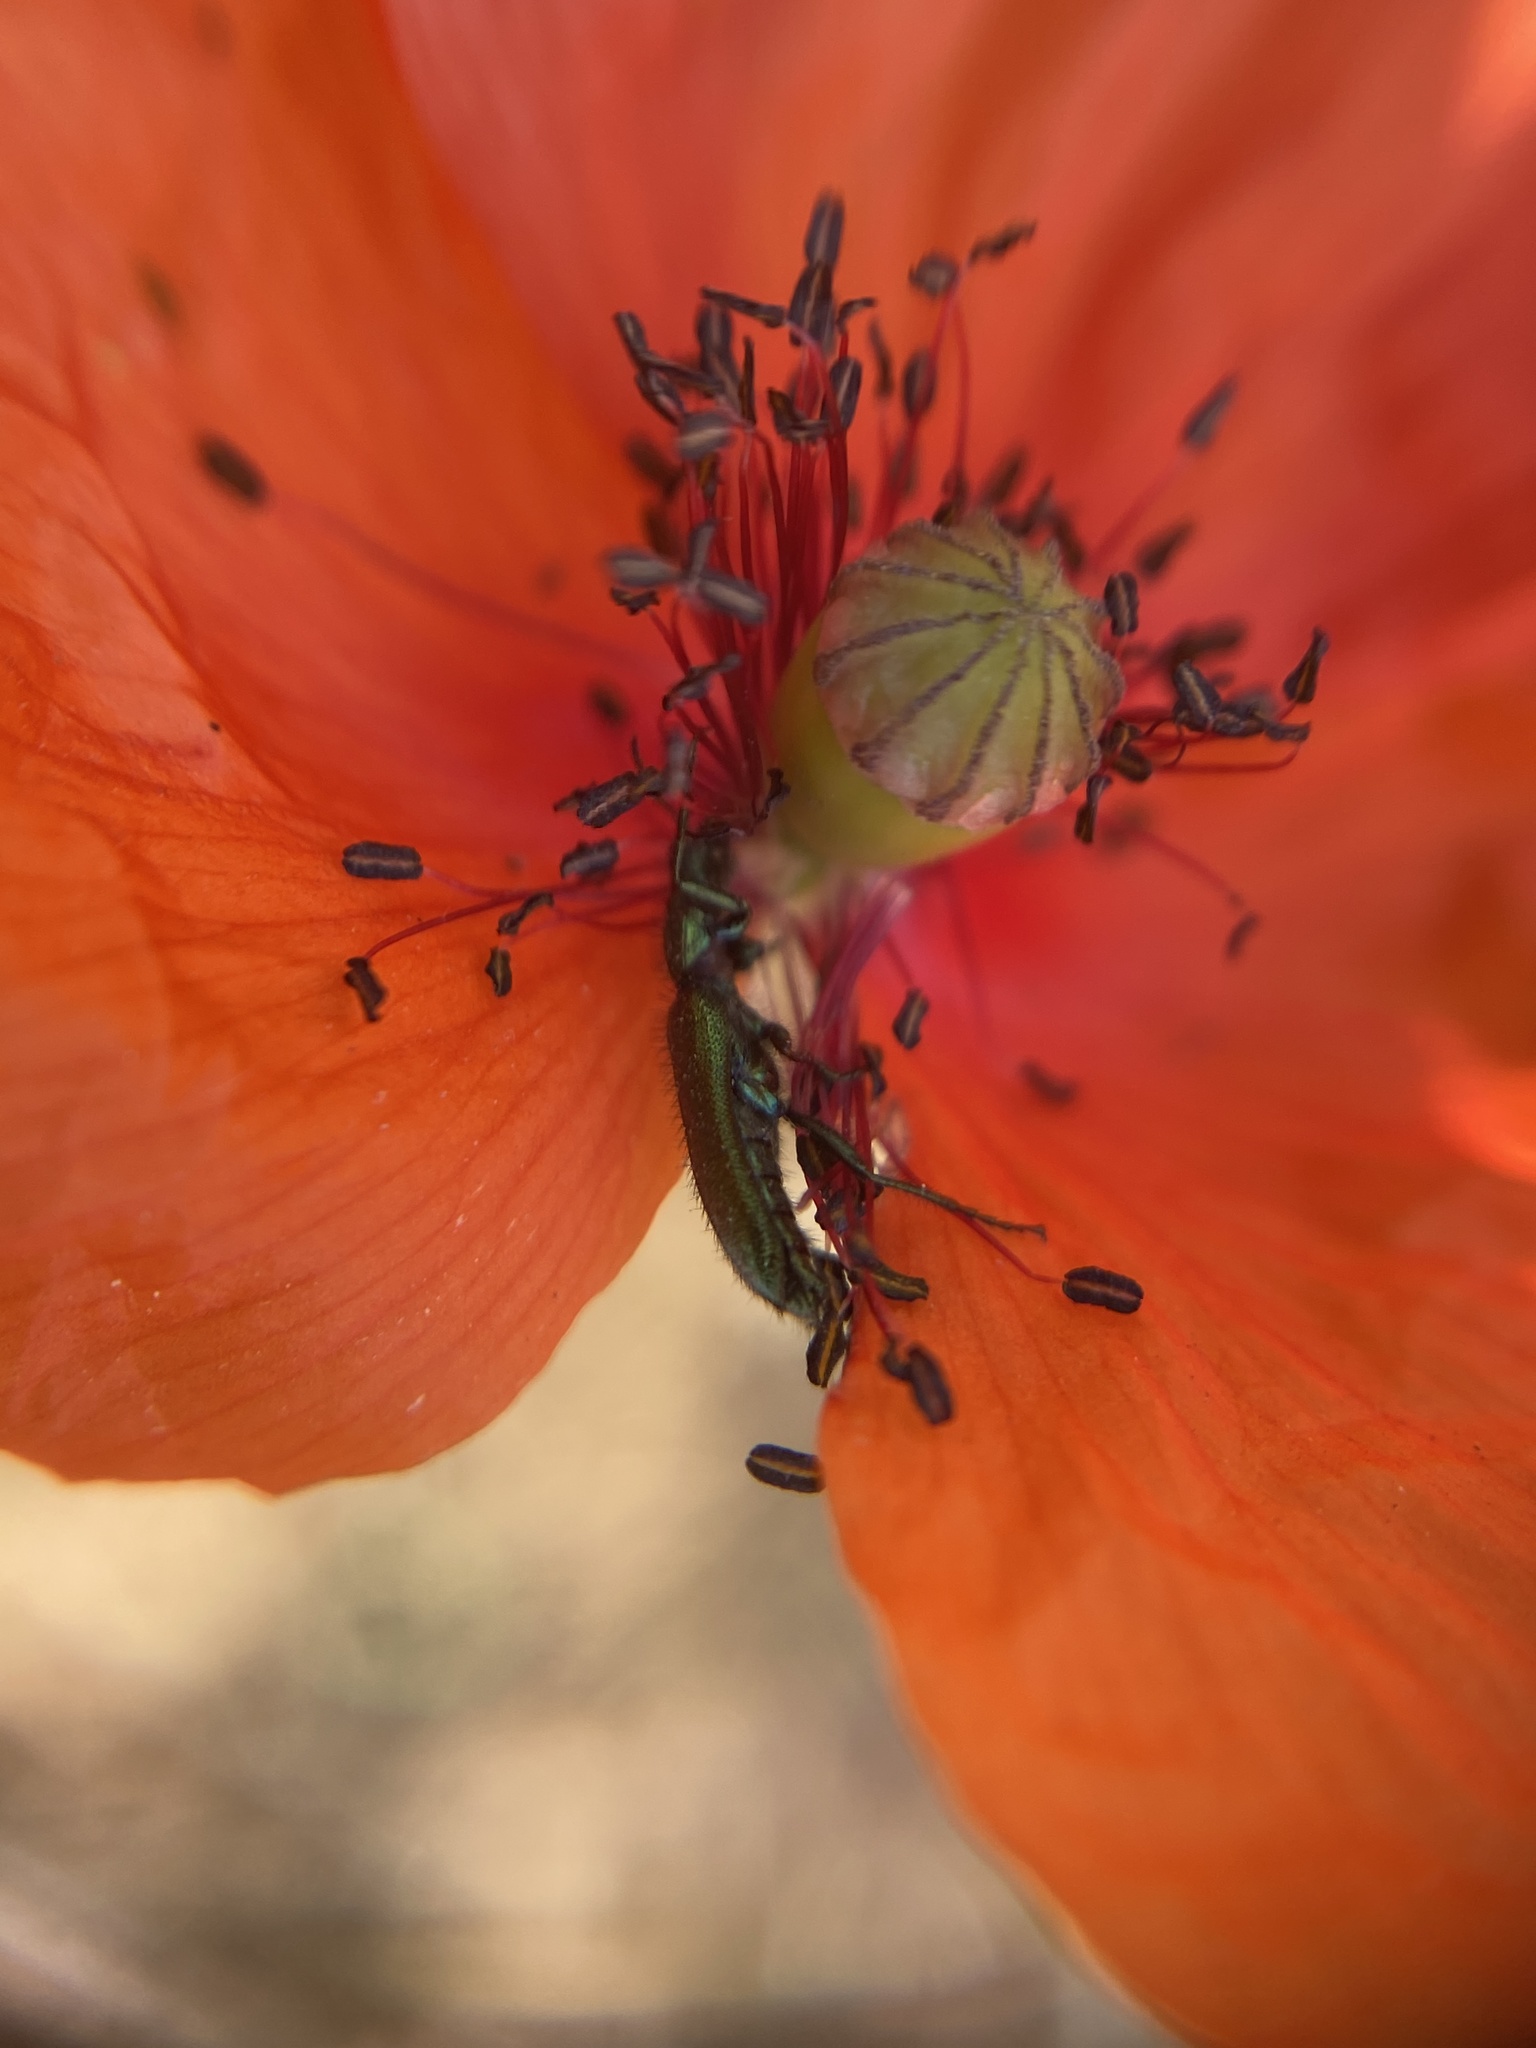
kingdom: Animalia
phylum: Arthropoda
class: Insecta
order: Coleoptera
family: Dasytidae
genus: Psilothrix
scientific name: Psilothrix viridicoerulea
